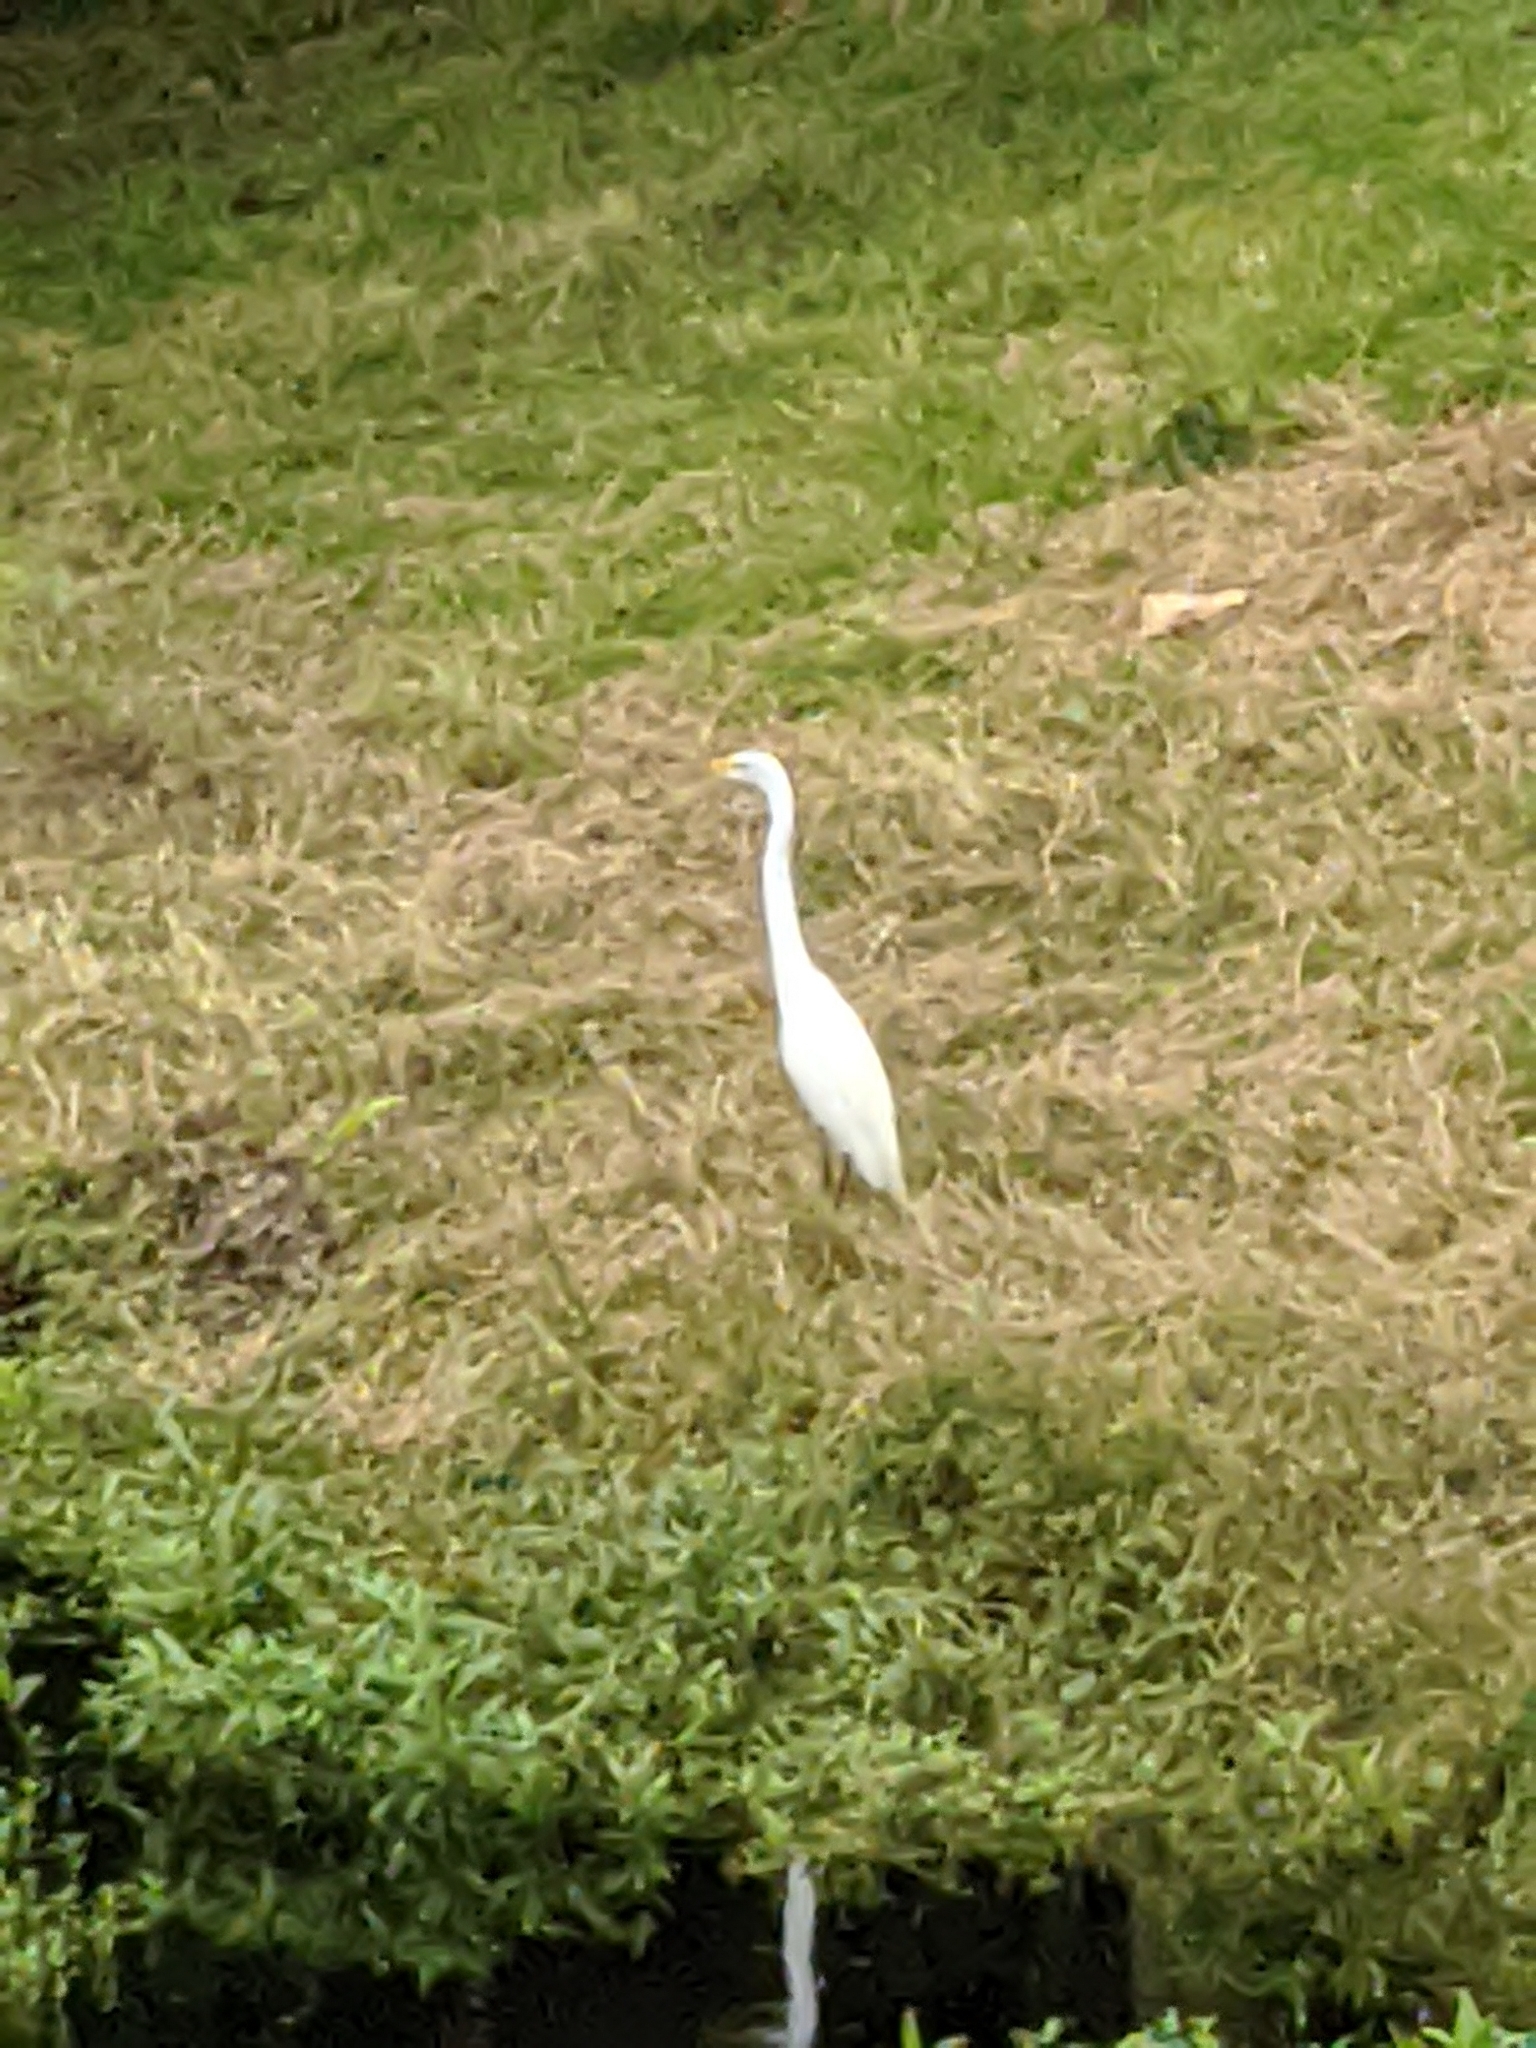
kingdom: Animalia
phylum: Chordata
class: Aves
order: Pelecaniformes
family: Ardeidae
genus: Ardea
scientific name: Ardea alba
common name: Great egret
